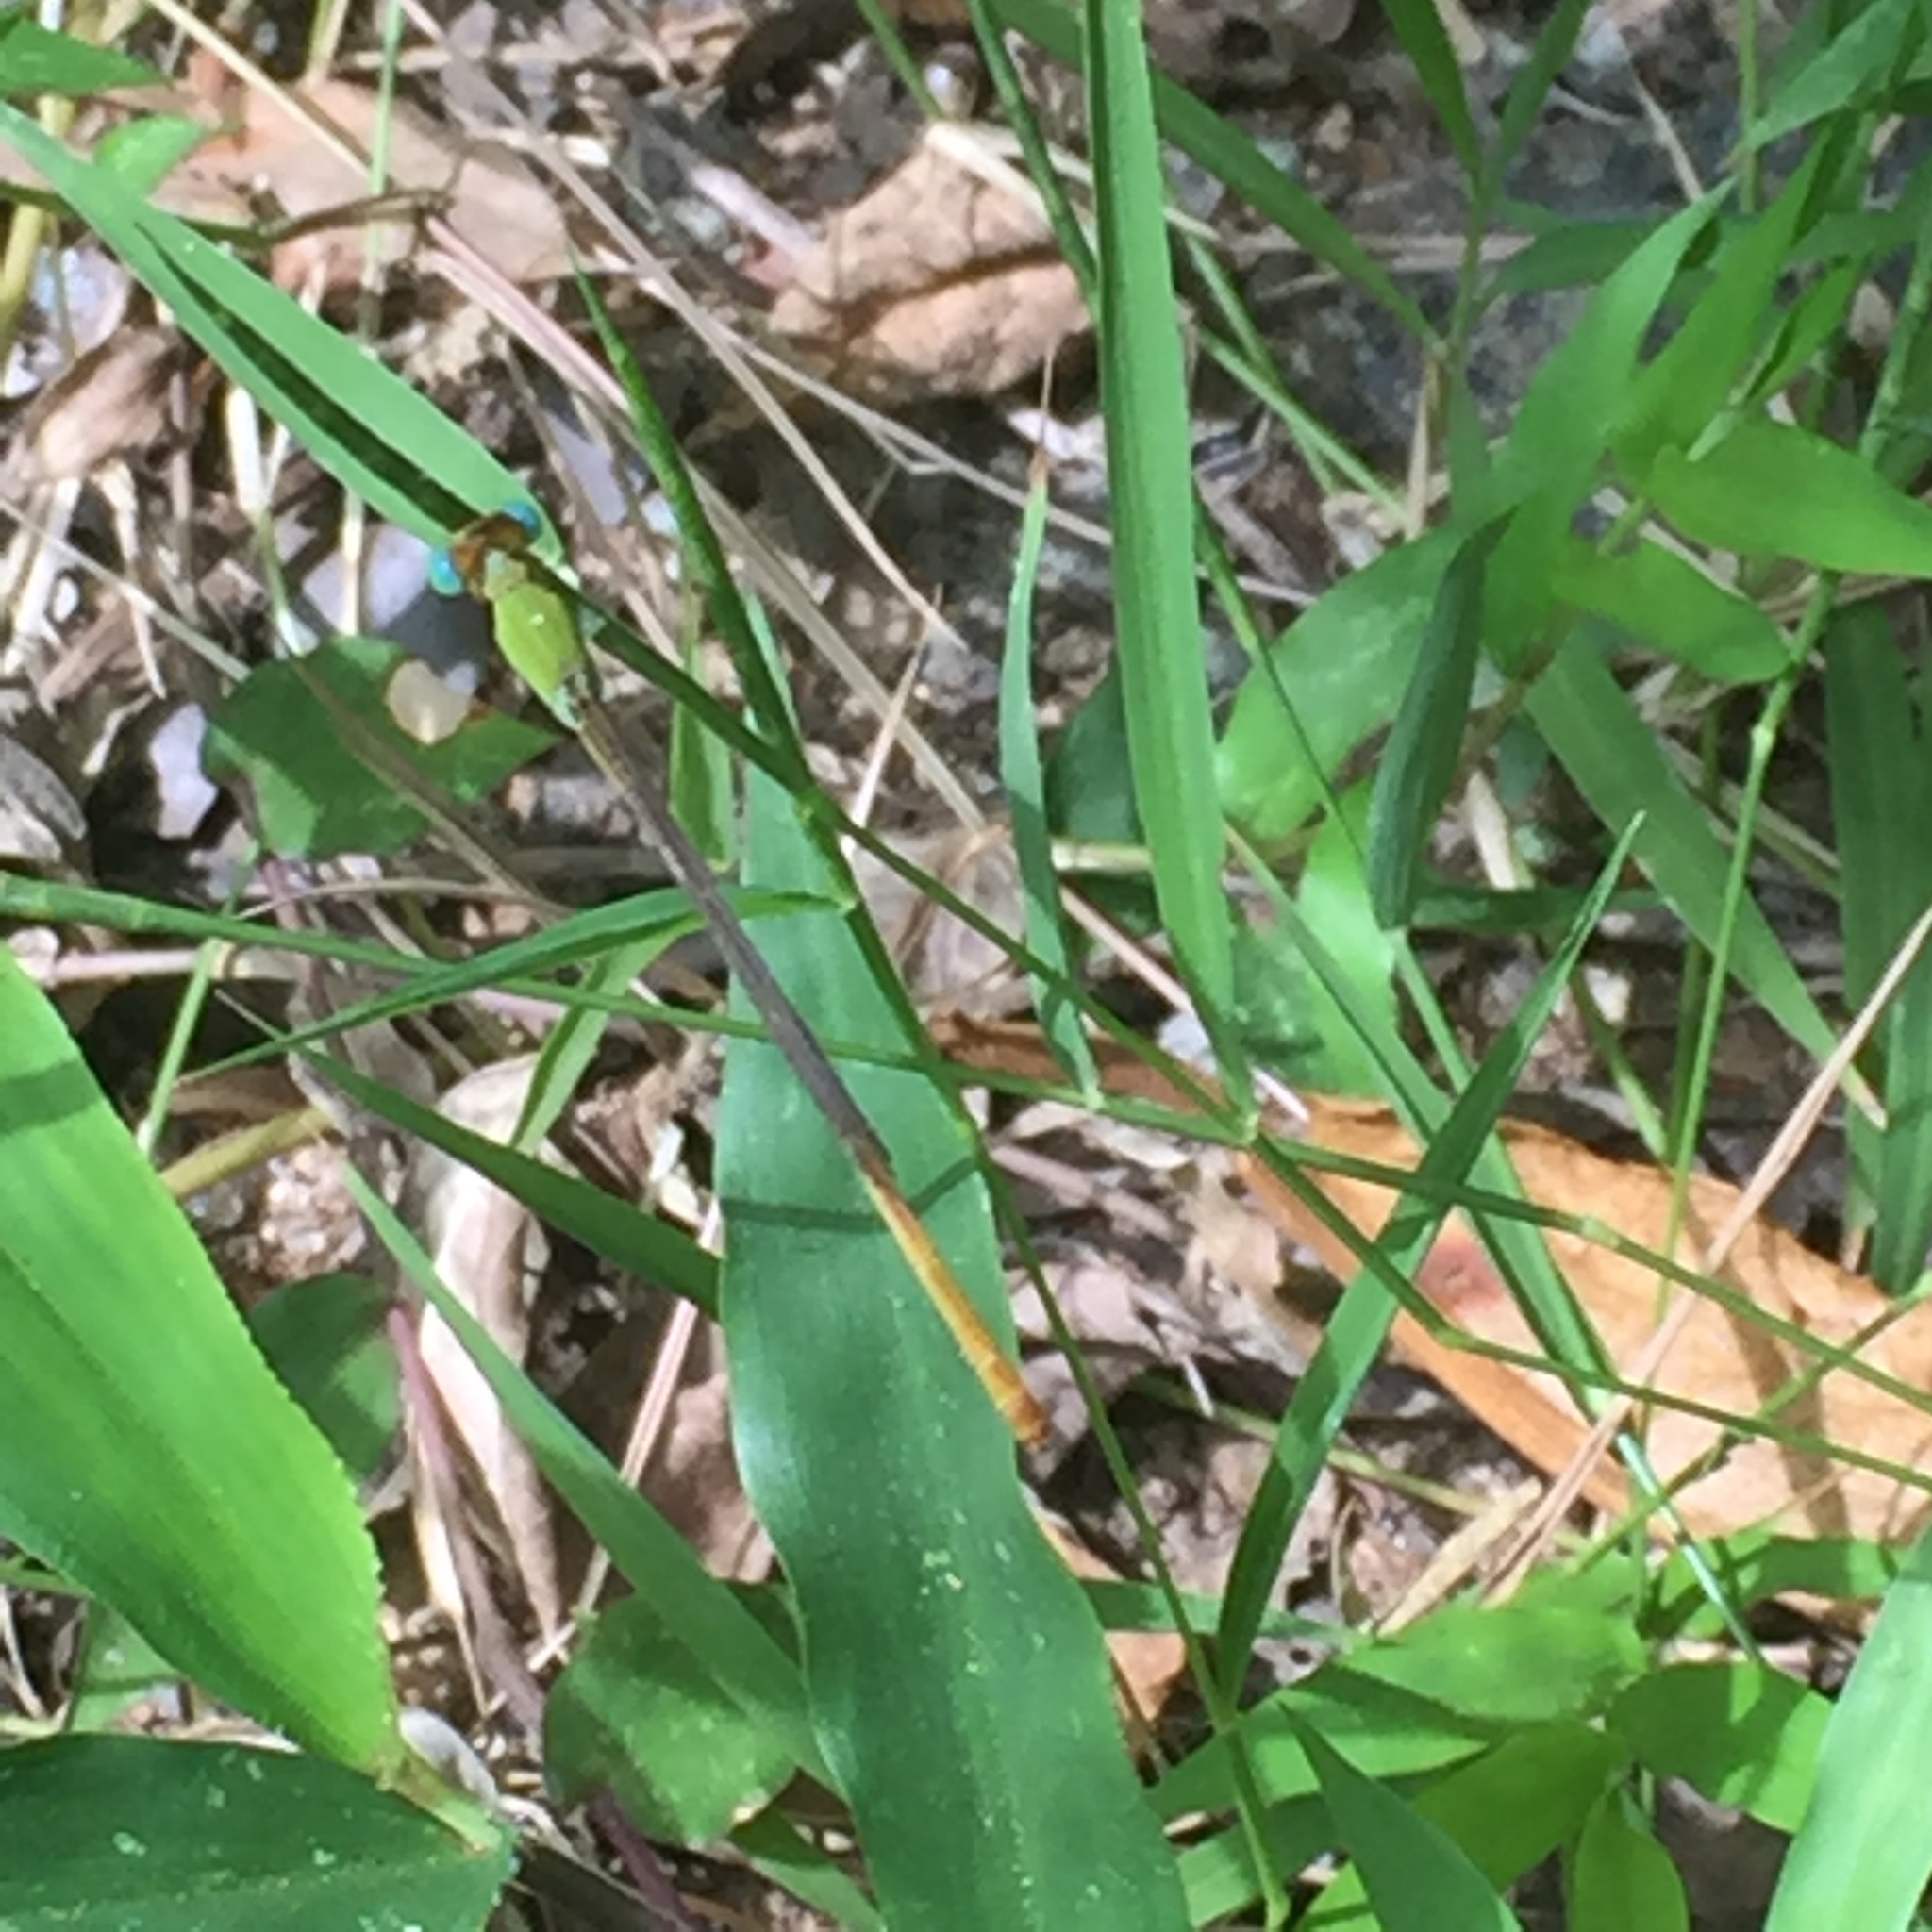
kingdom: Animalia
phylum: Arthropoda
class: Insecta
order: Odonata
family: Coenagrionidae
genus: Ceriagrion
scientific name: Ceriagrion coromandelianum
